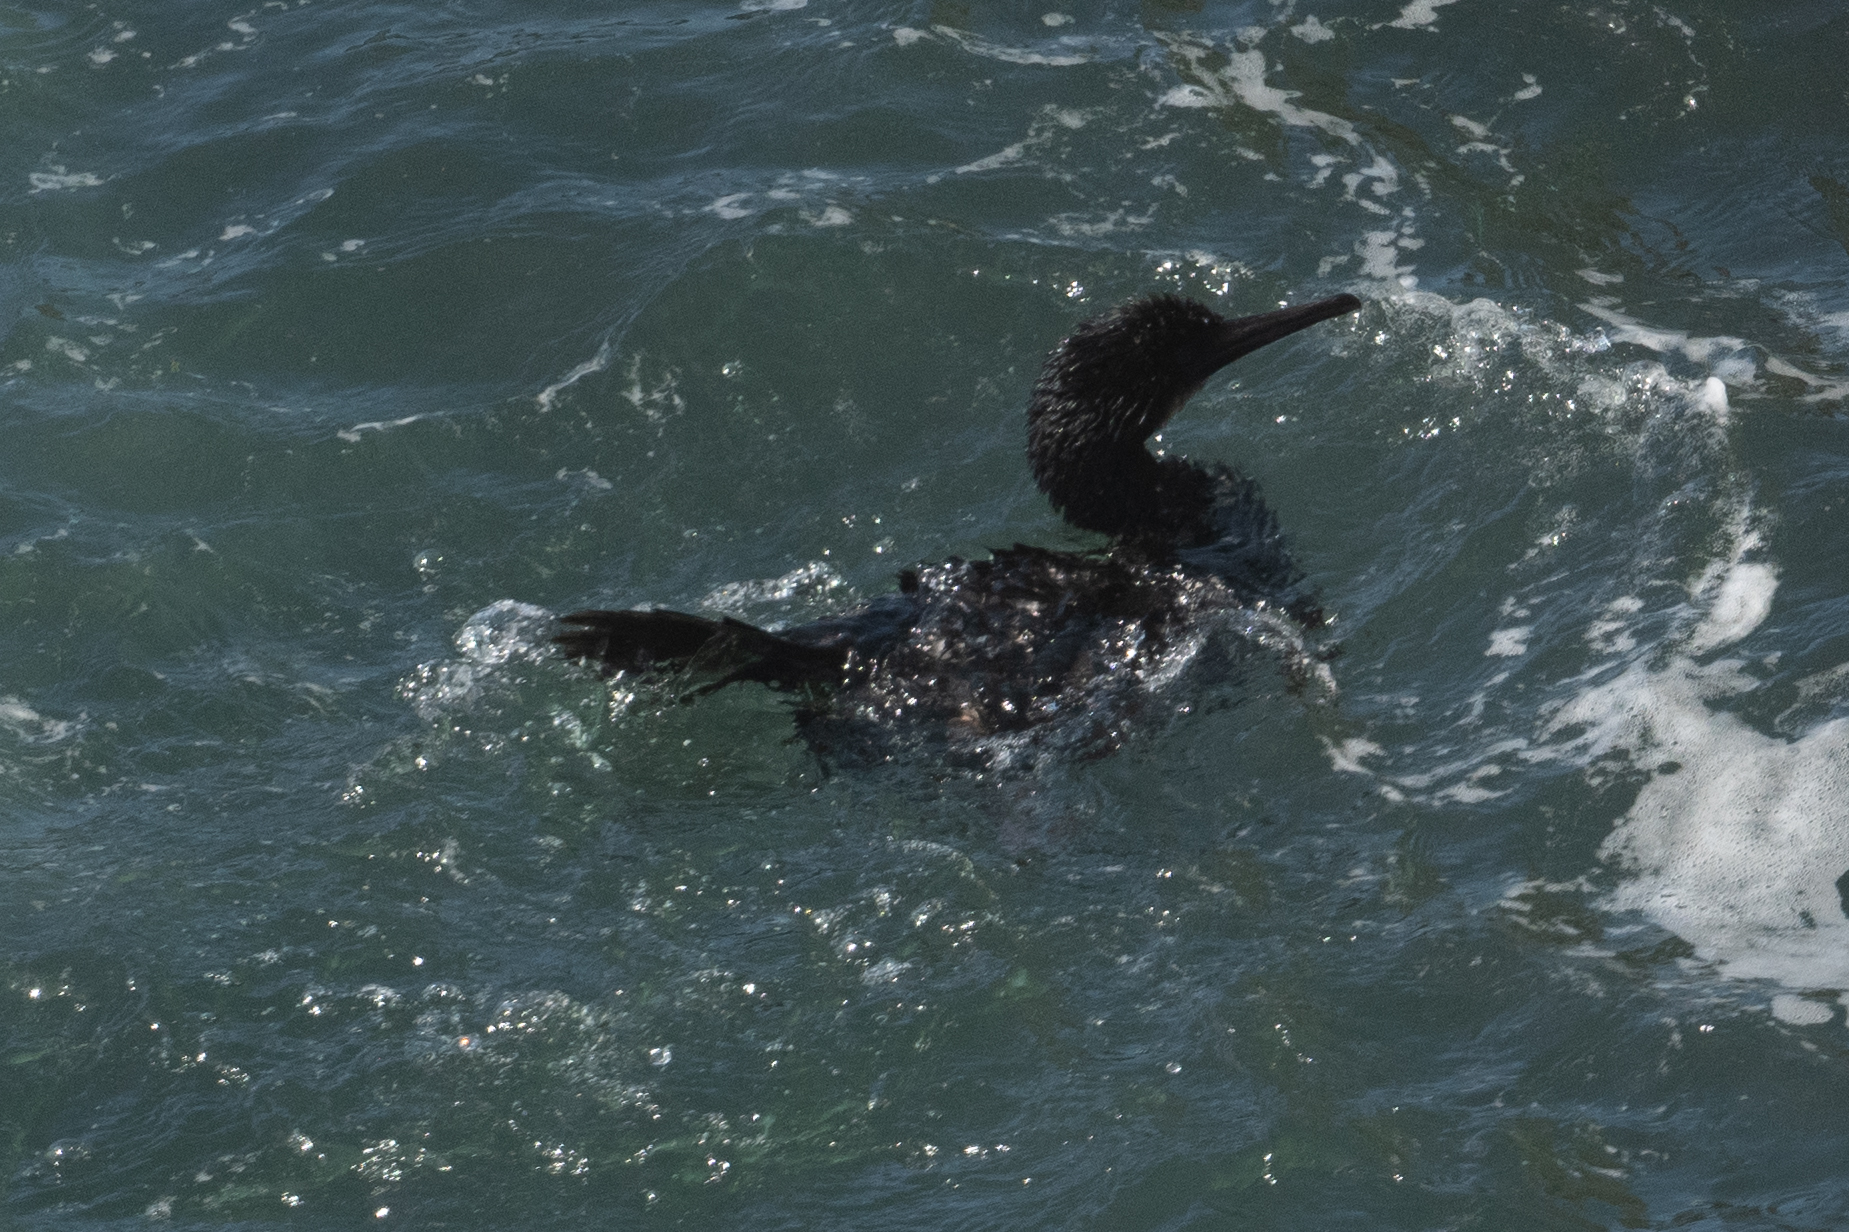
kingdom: Animalia
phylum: Chordata
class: Aves
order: Suliformes
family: Phalacrocoracidae
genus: Urile
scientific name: Urile penicillatus
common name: Brandt's cormorant
